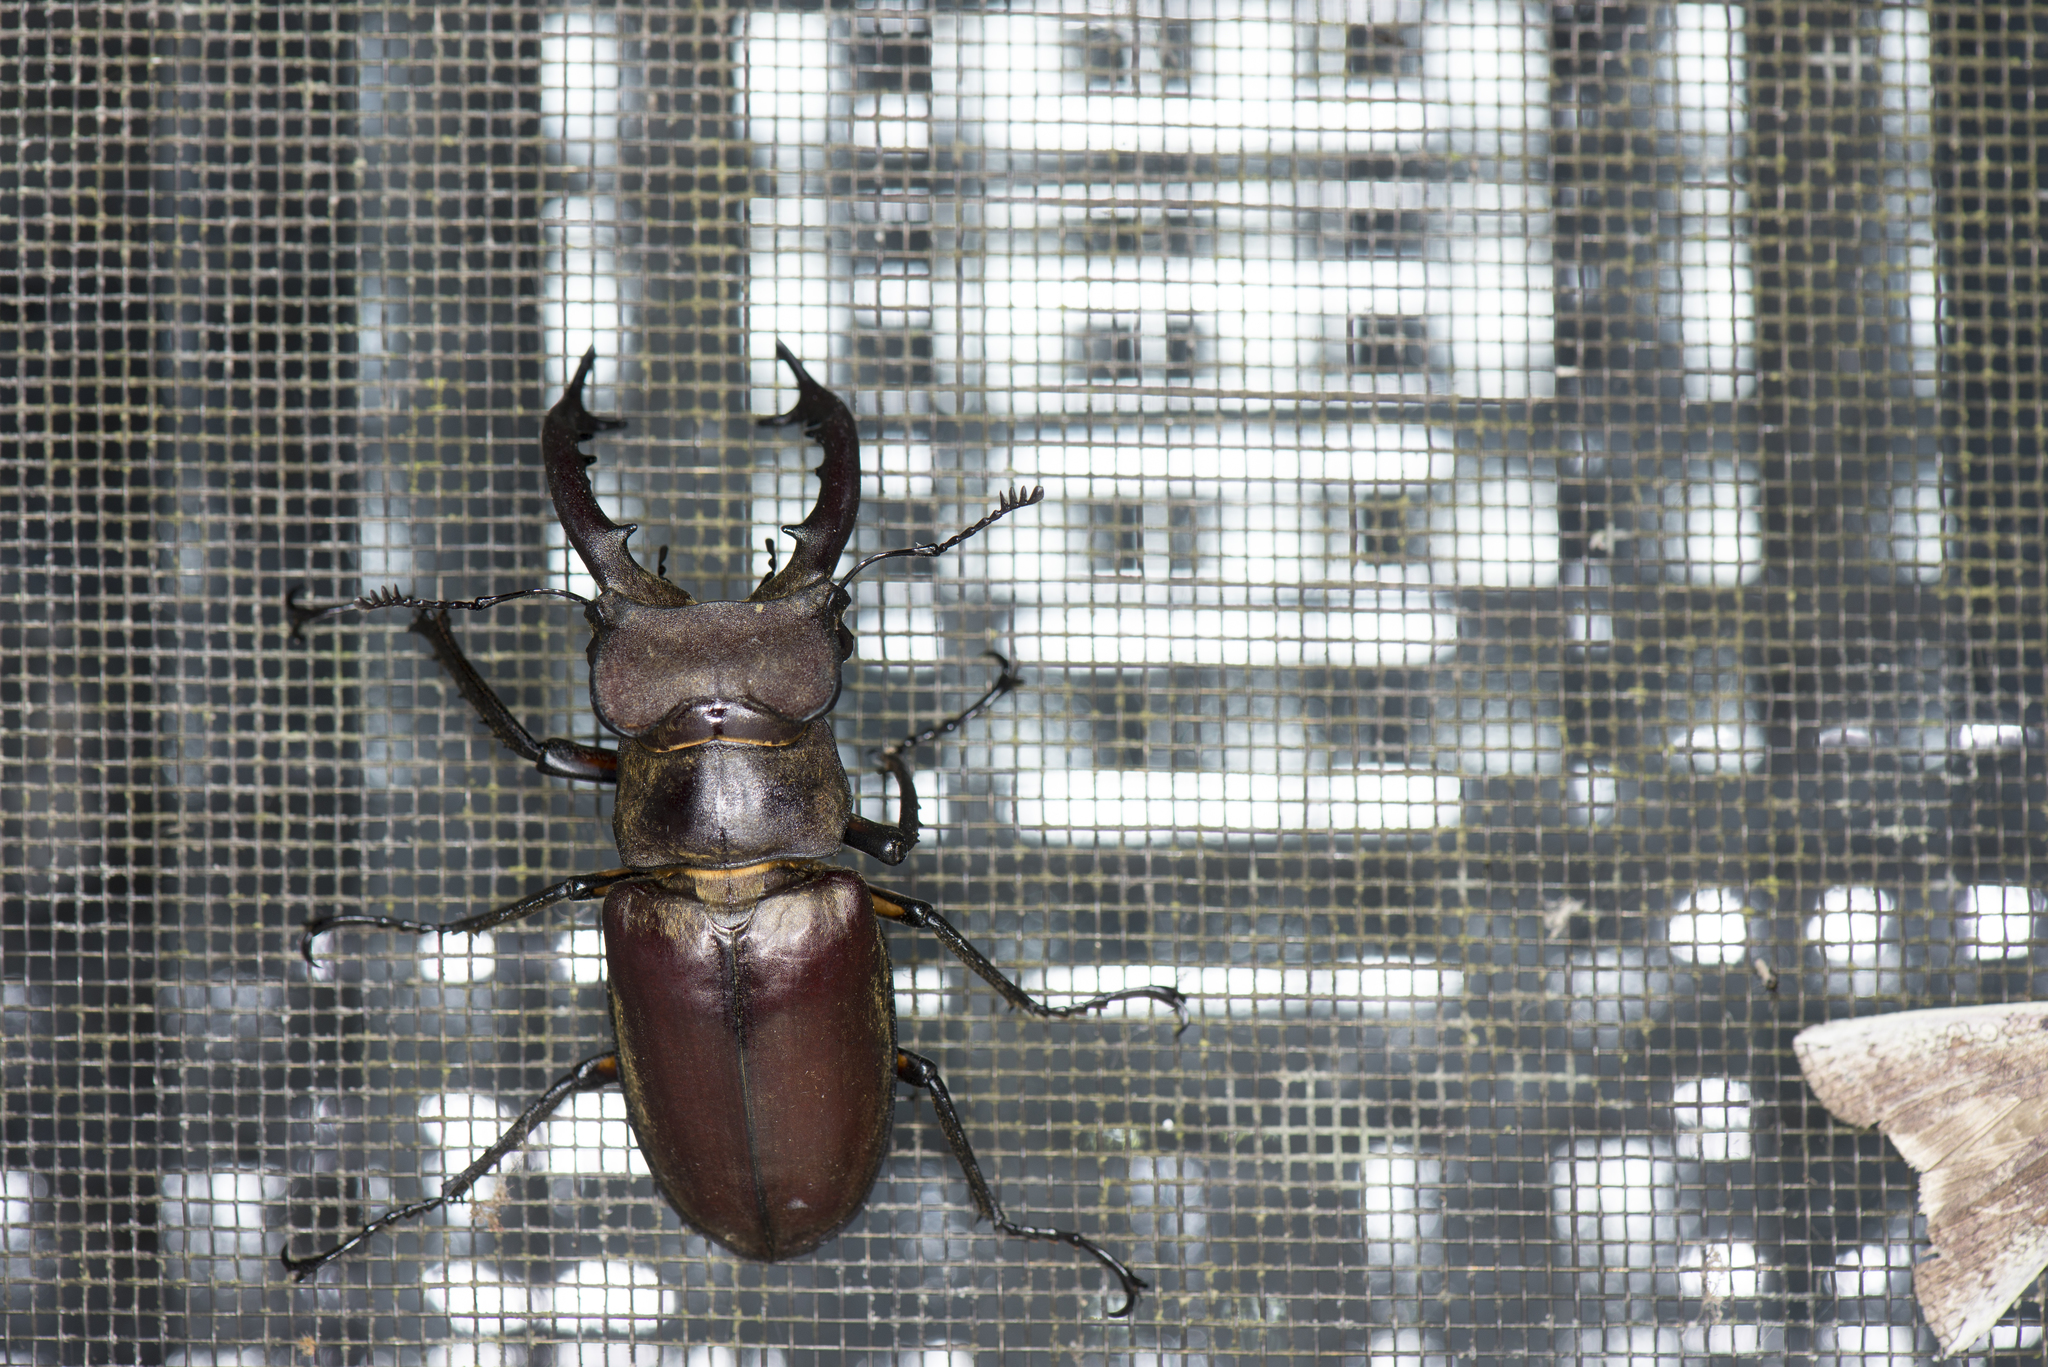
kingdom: Animalia
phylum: Arthropoda
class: Insecta
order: Coleoptera
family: Lucanidae
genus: Lucanus
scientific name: Lucanus maculifemoratus
